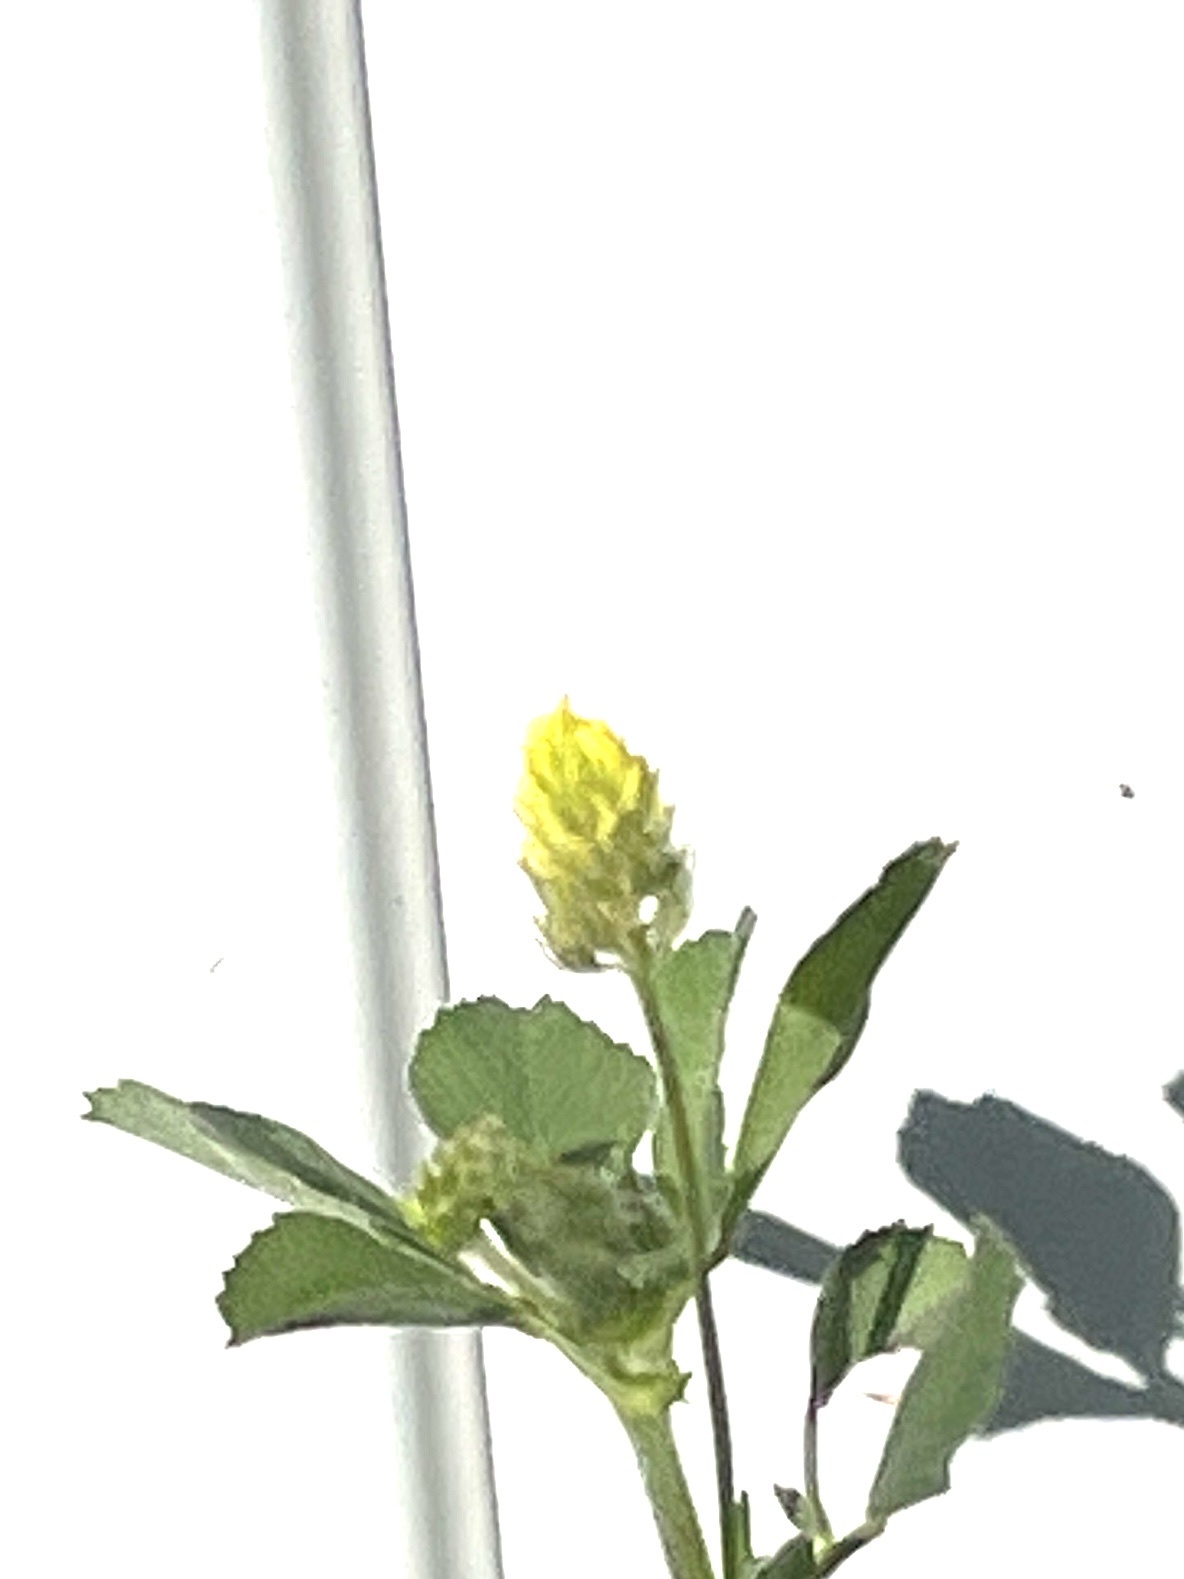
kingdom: Plantae
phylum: Tracheophyta
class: Magnoliopsida
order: Fabales
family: Fabaceae
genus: Medicago
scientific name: Medicago lupulina
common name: Black medick
